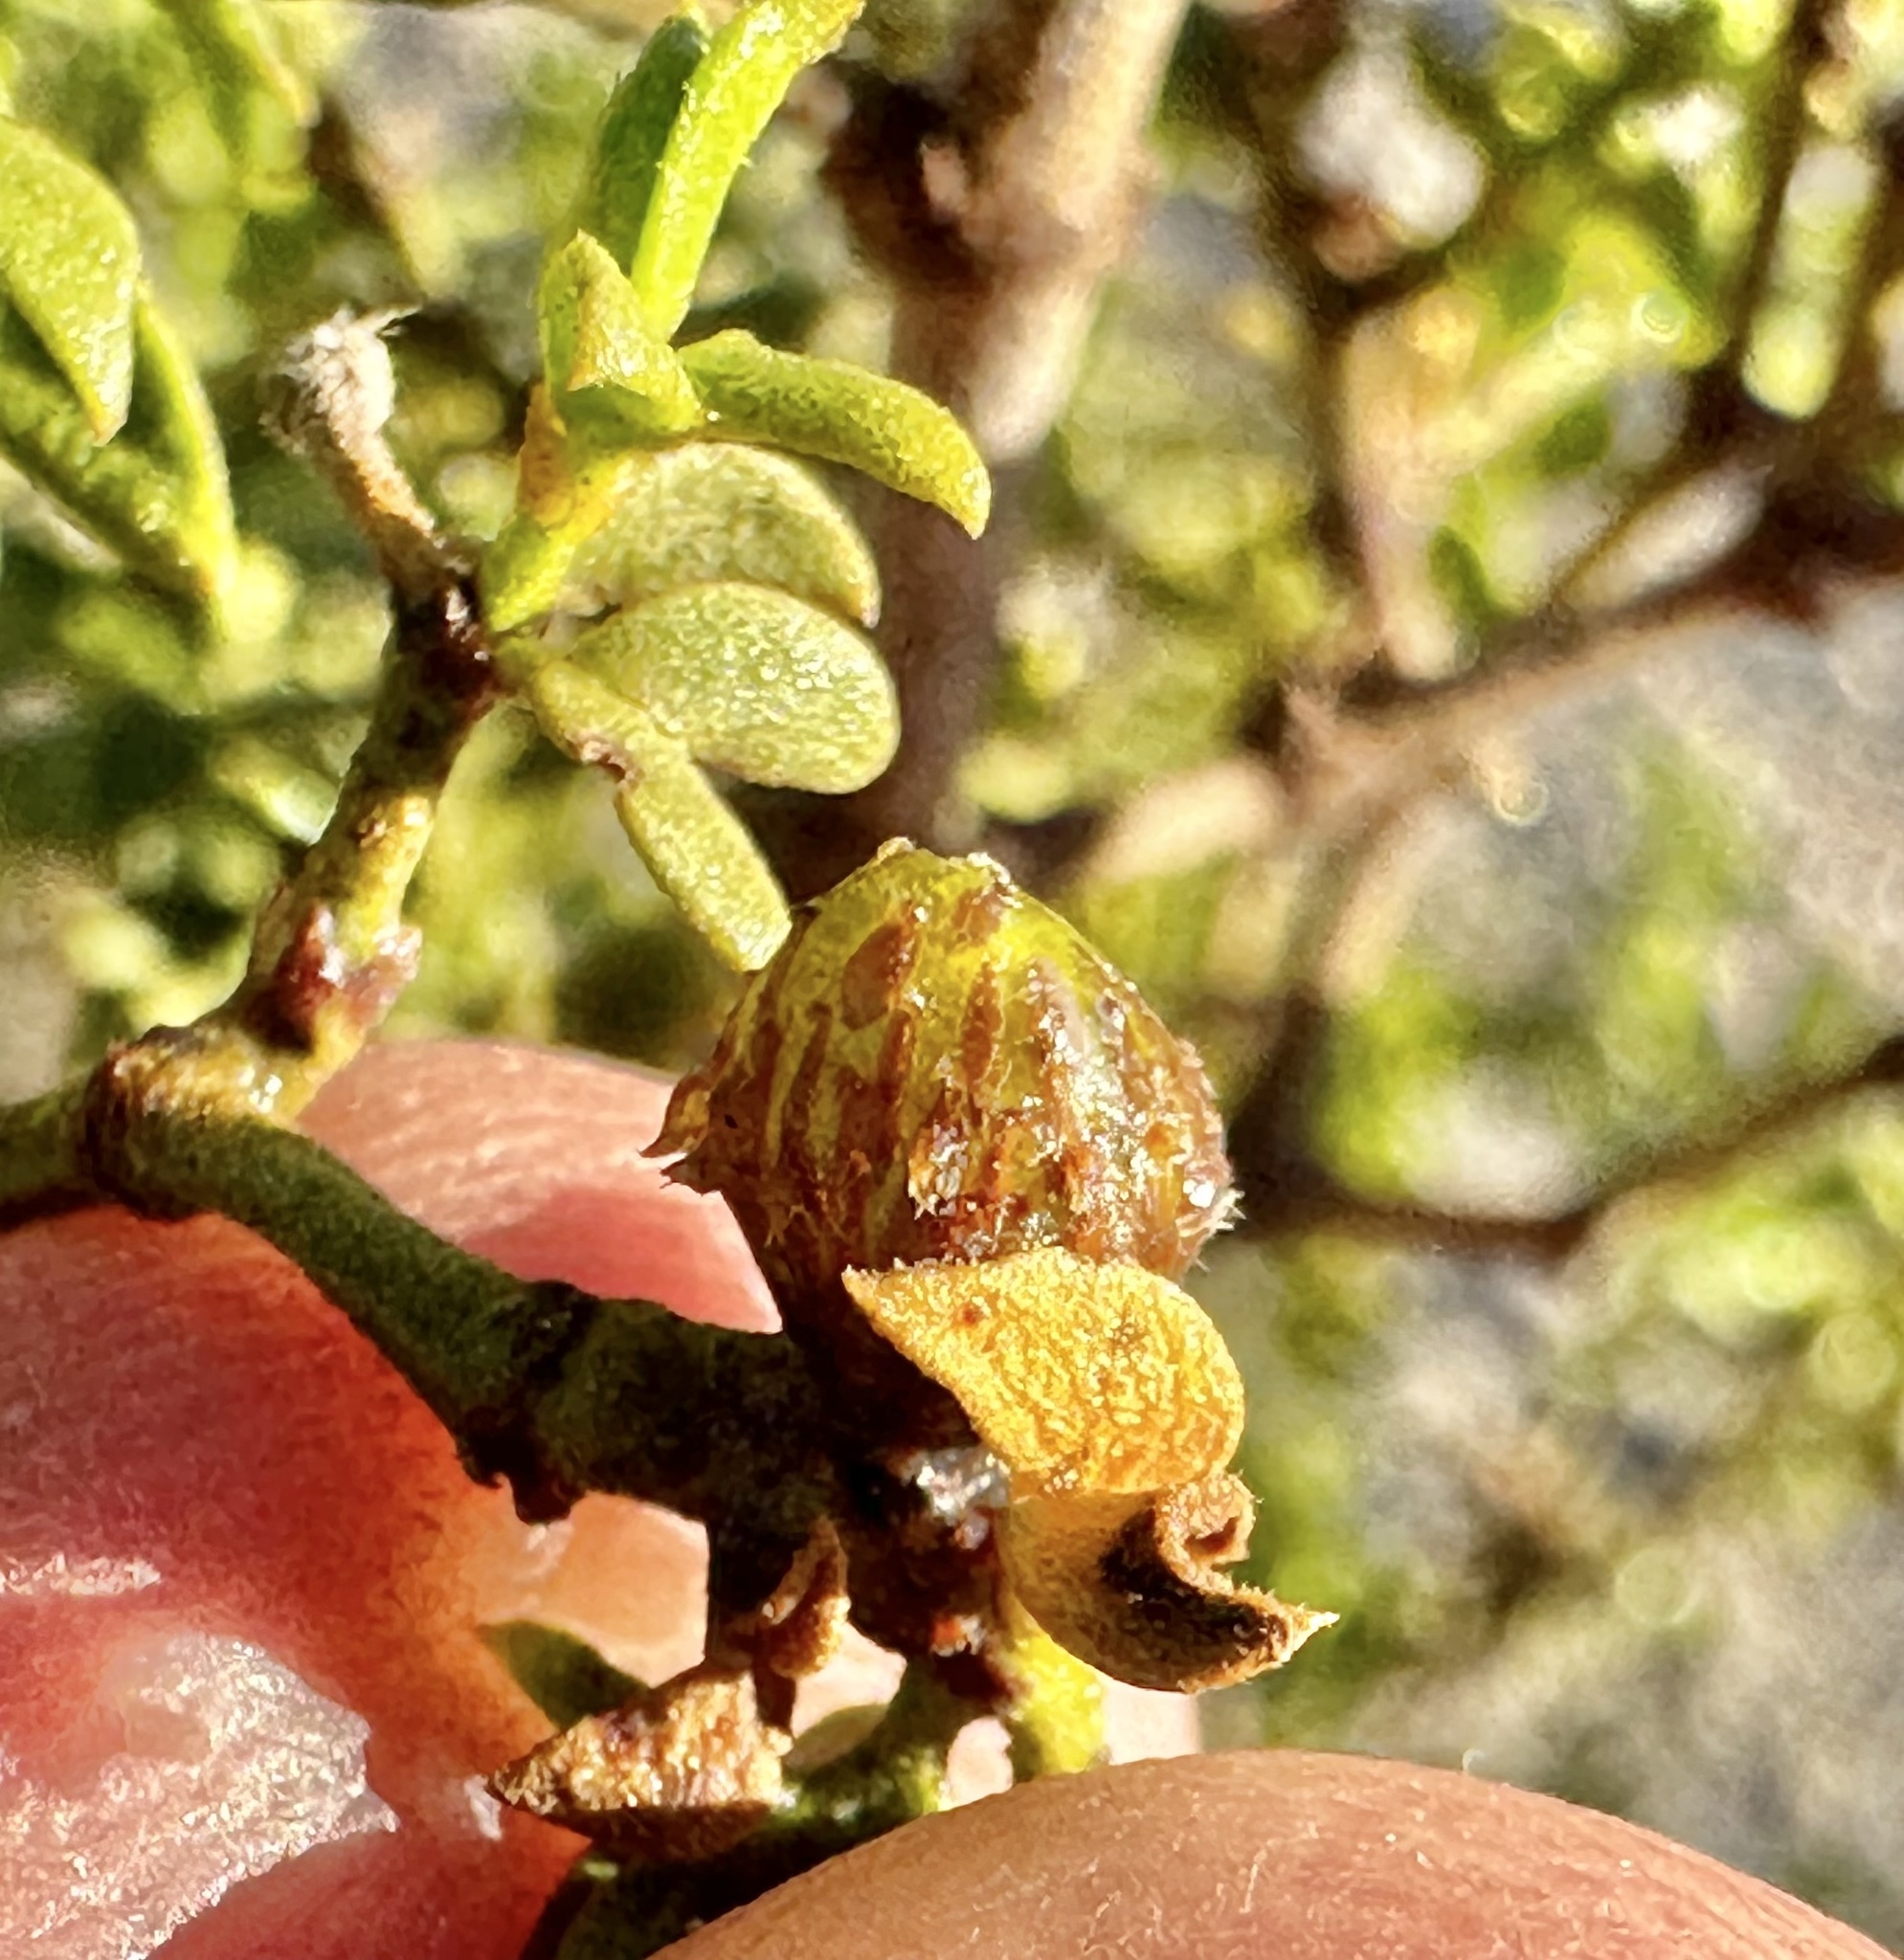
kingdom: Animalia
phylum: Arthropoda
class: Insecta
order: Diptera
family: Cecidomyiidae
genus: Asphondylia
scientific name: Asphondylia resinosa
